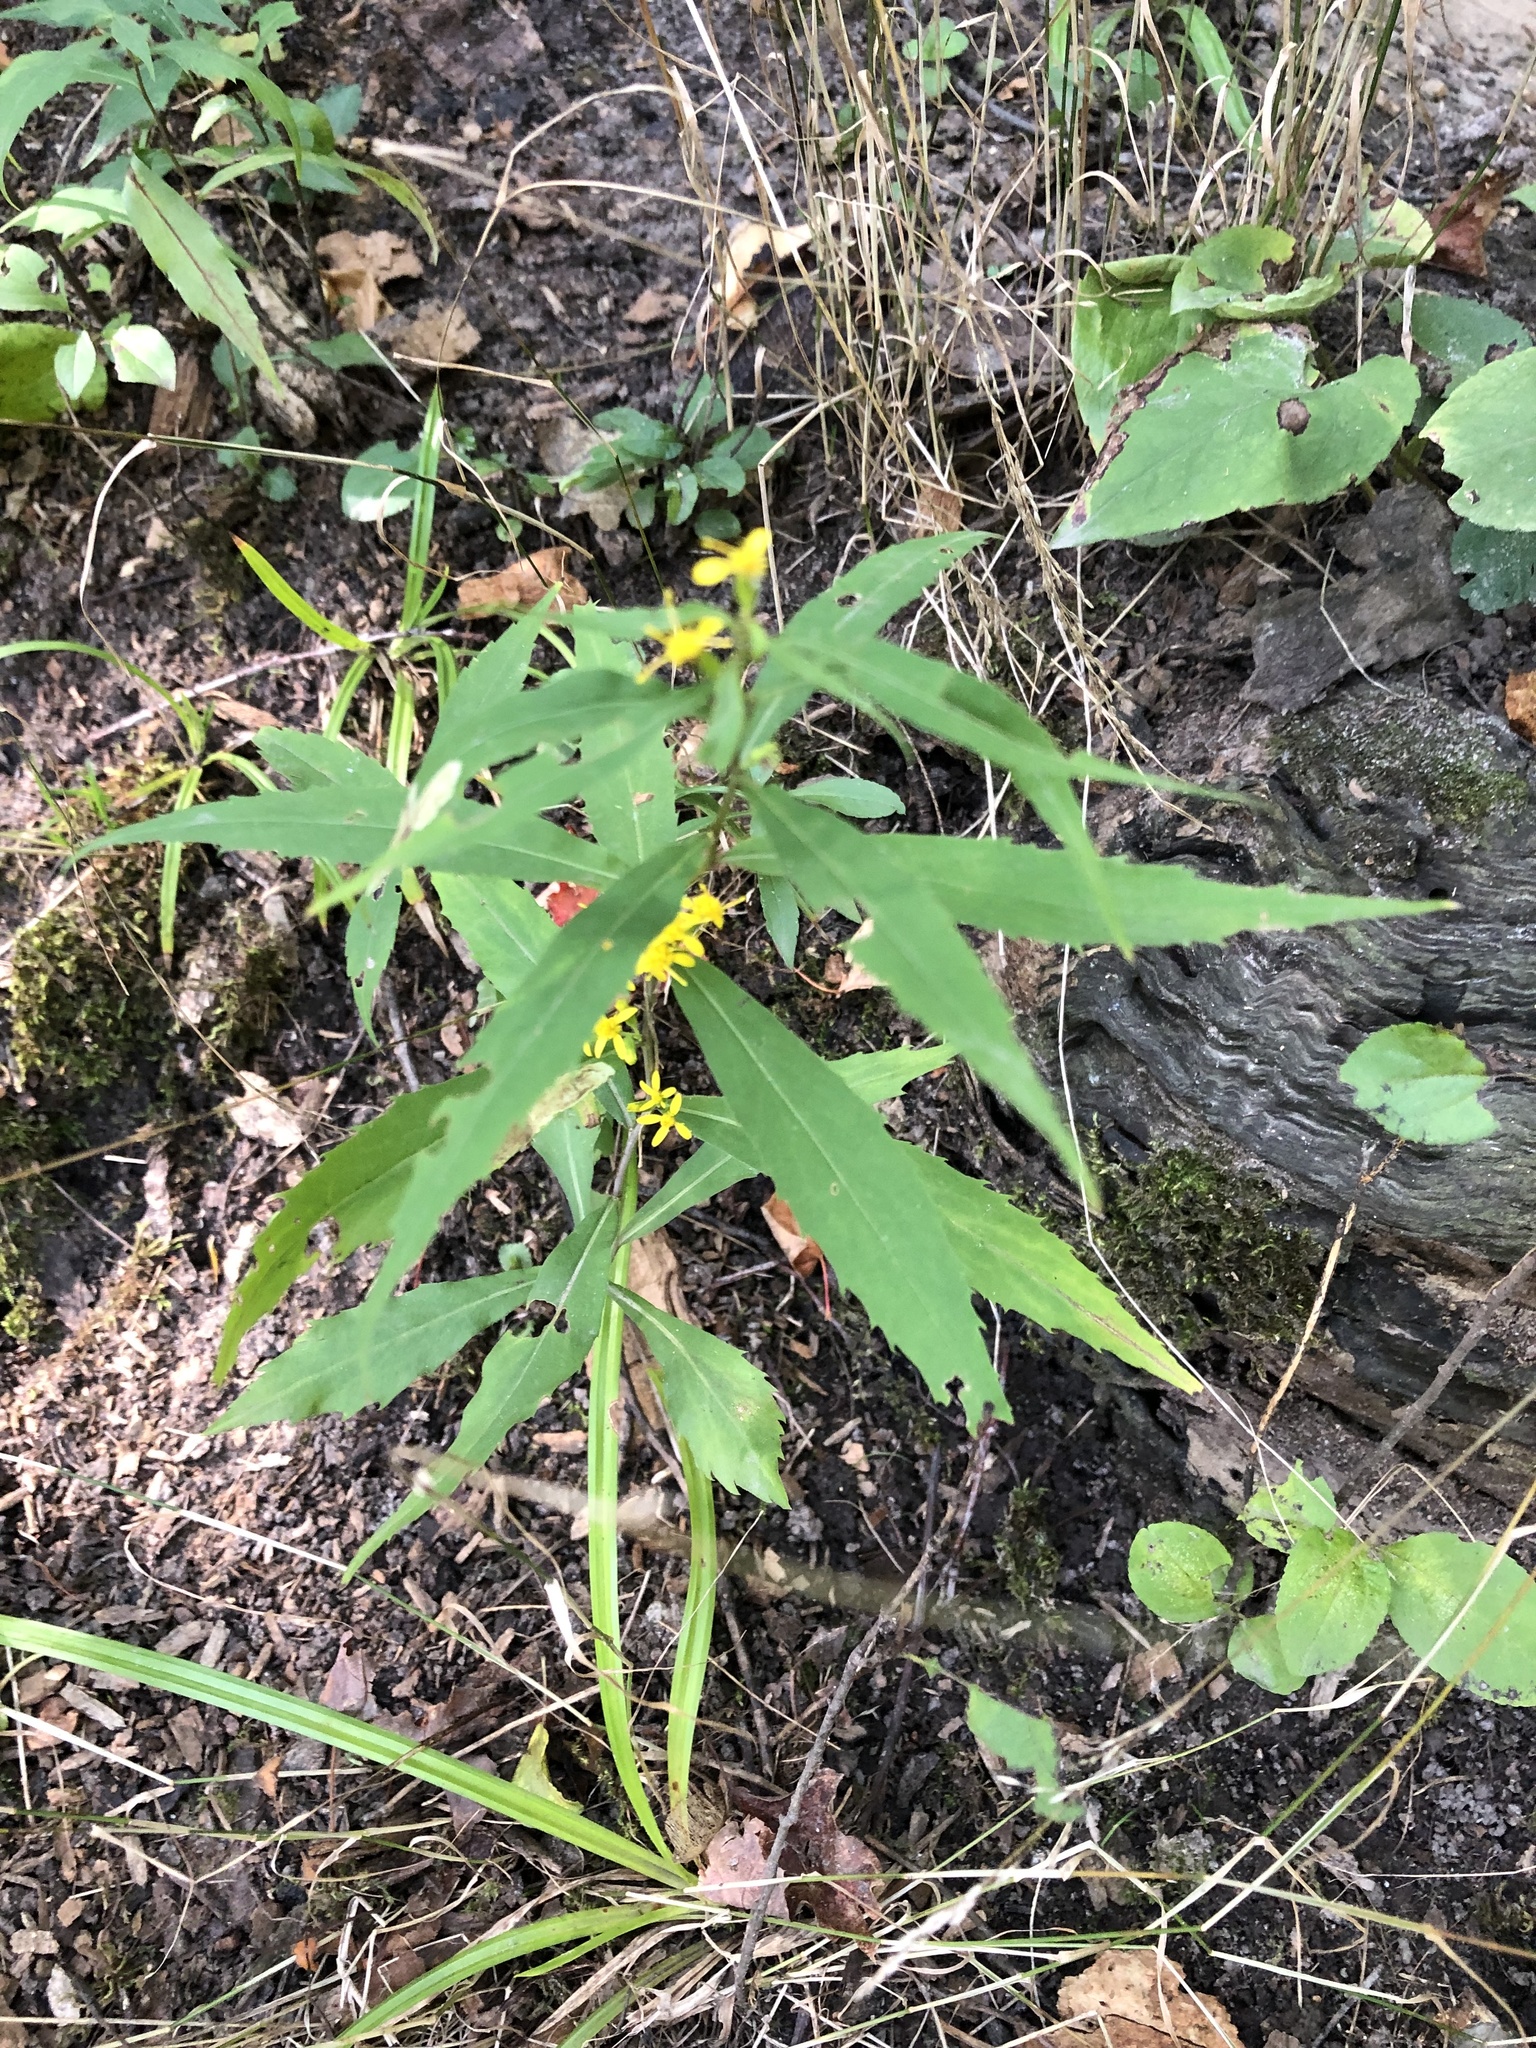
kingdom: Plantae
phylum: Tracheophyta
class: Magnoliopsida
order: Asterales
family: Asteraceae
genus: Solidago
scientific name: Solidago caesia
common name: Woodland goldenrod
